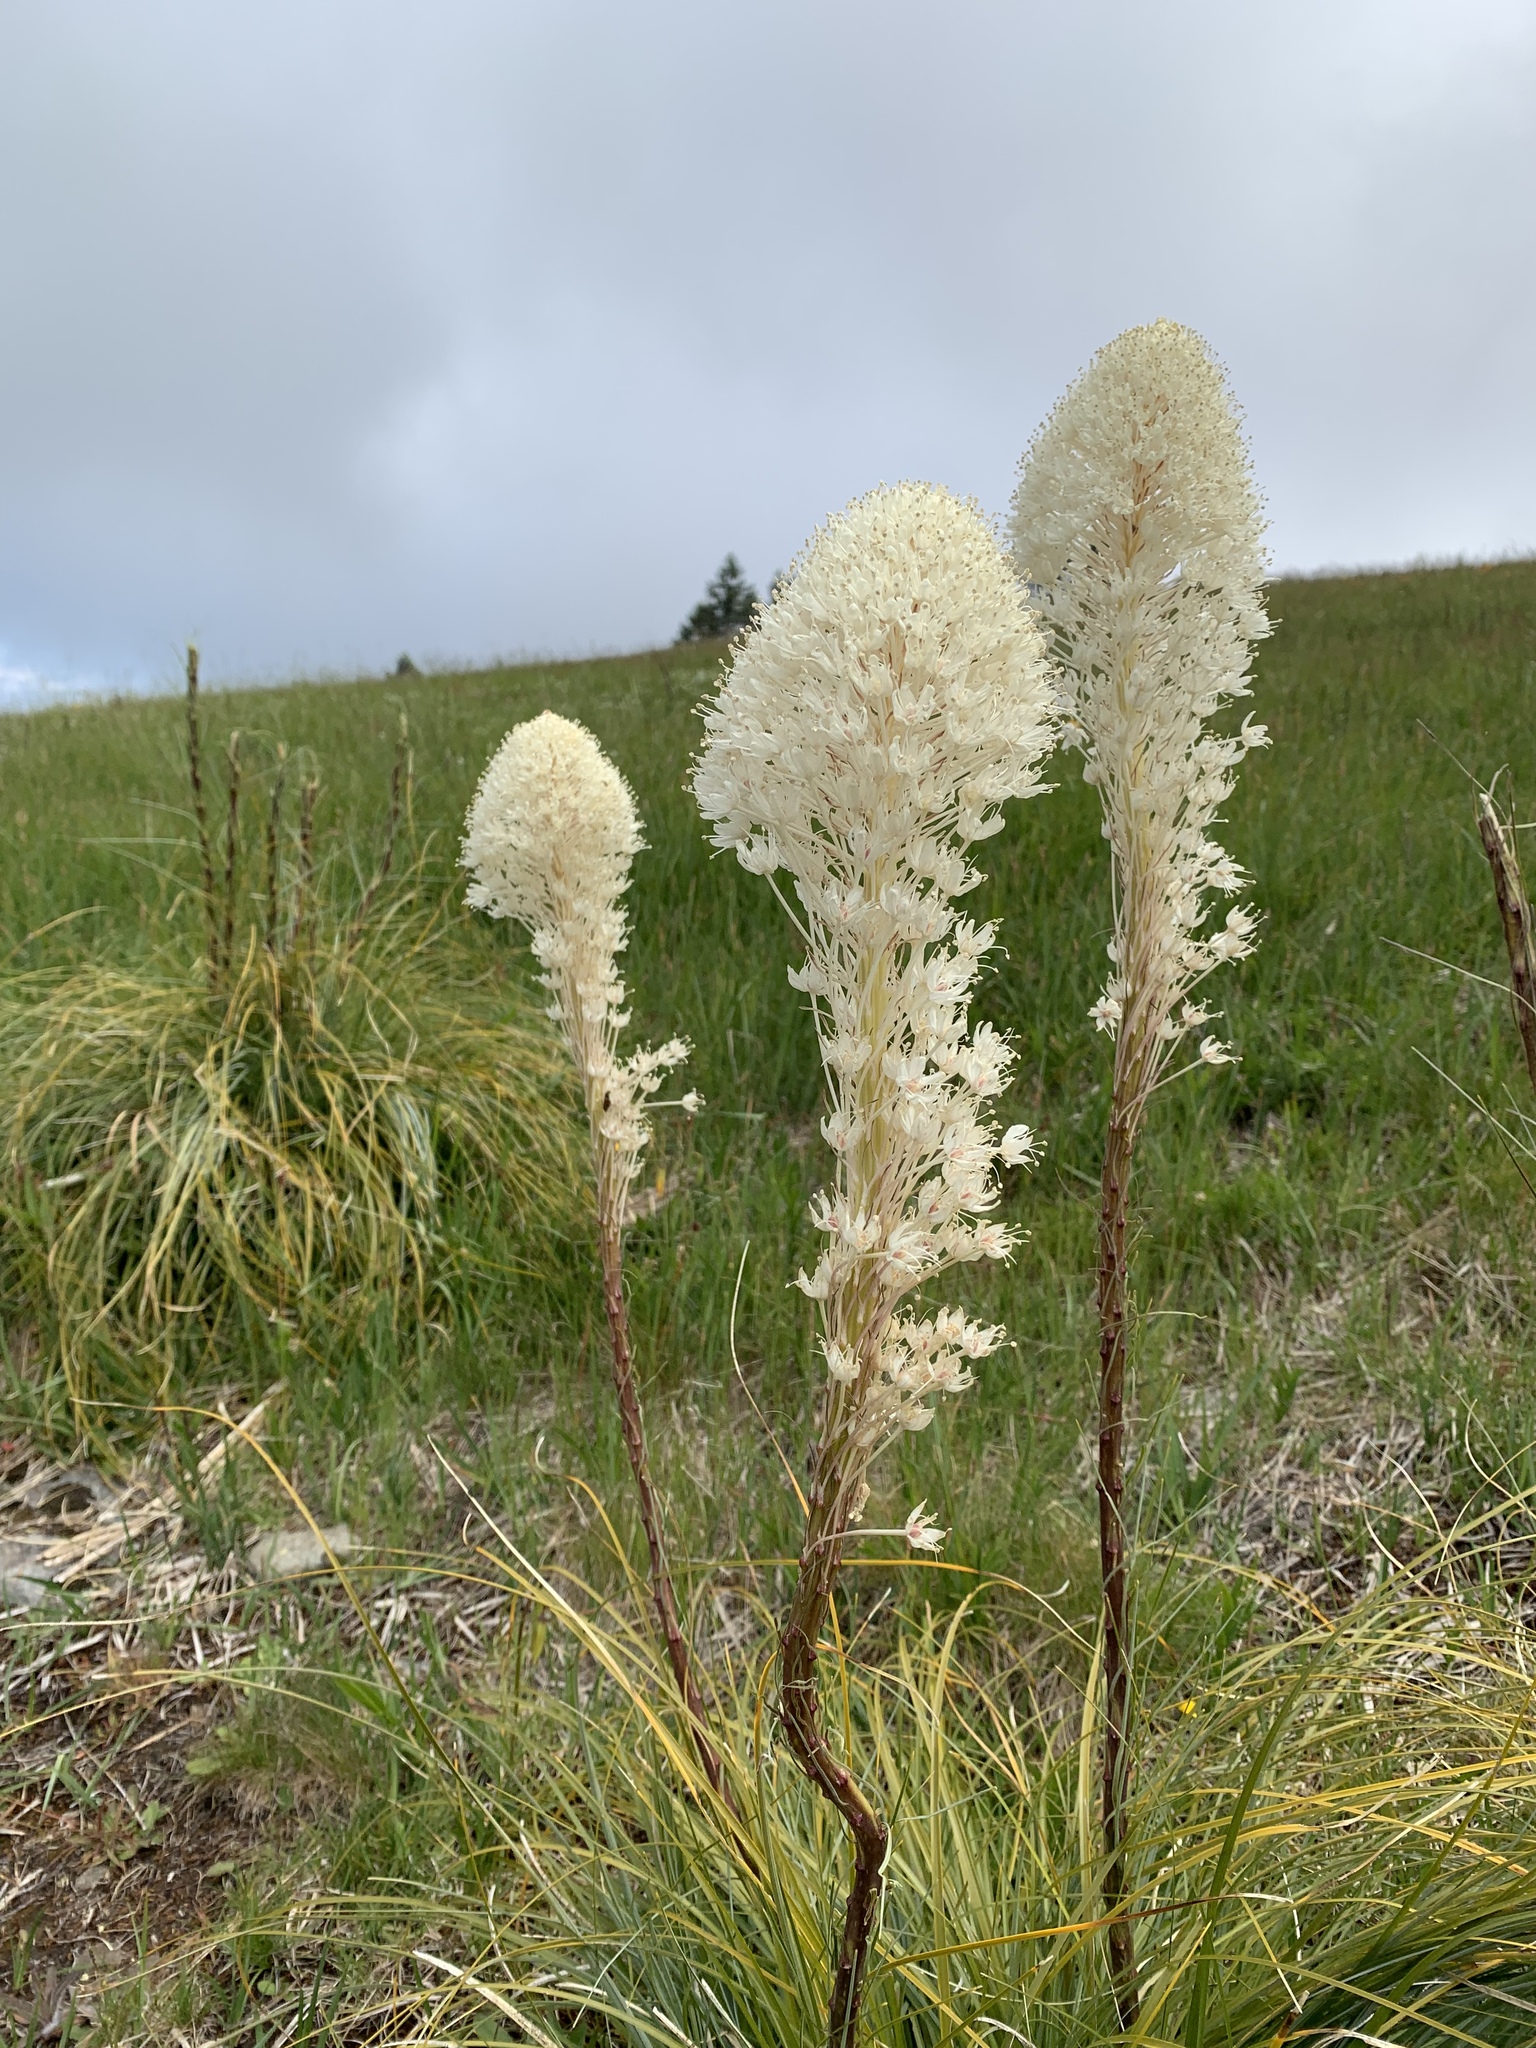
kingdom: Plantae
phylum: Tracheophyta
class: Liliopsida
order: Liliales
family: Melanthiaceae
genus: Xerophyllum
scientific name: Xerophyllum tenax
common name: Bear-grass
